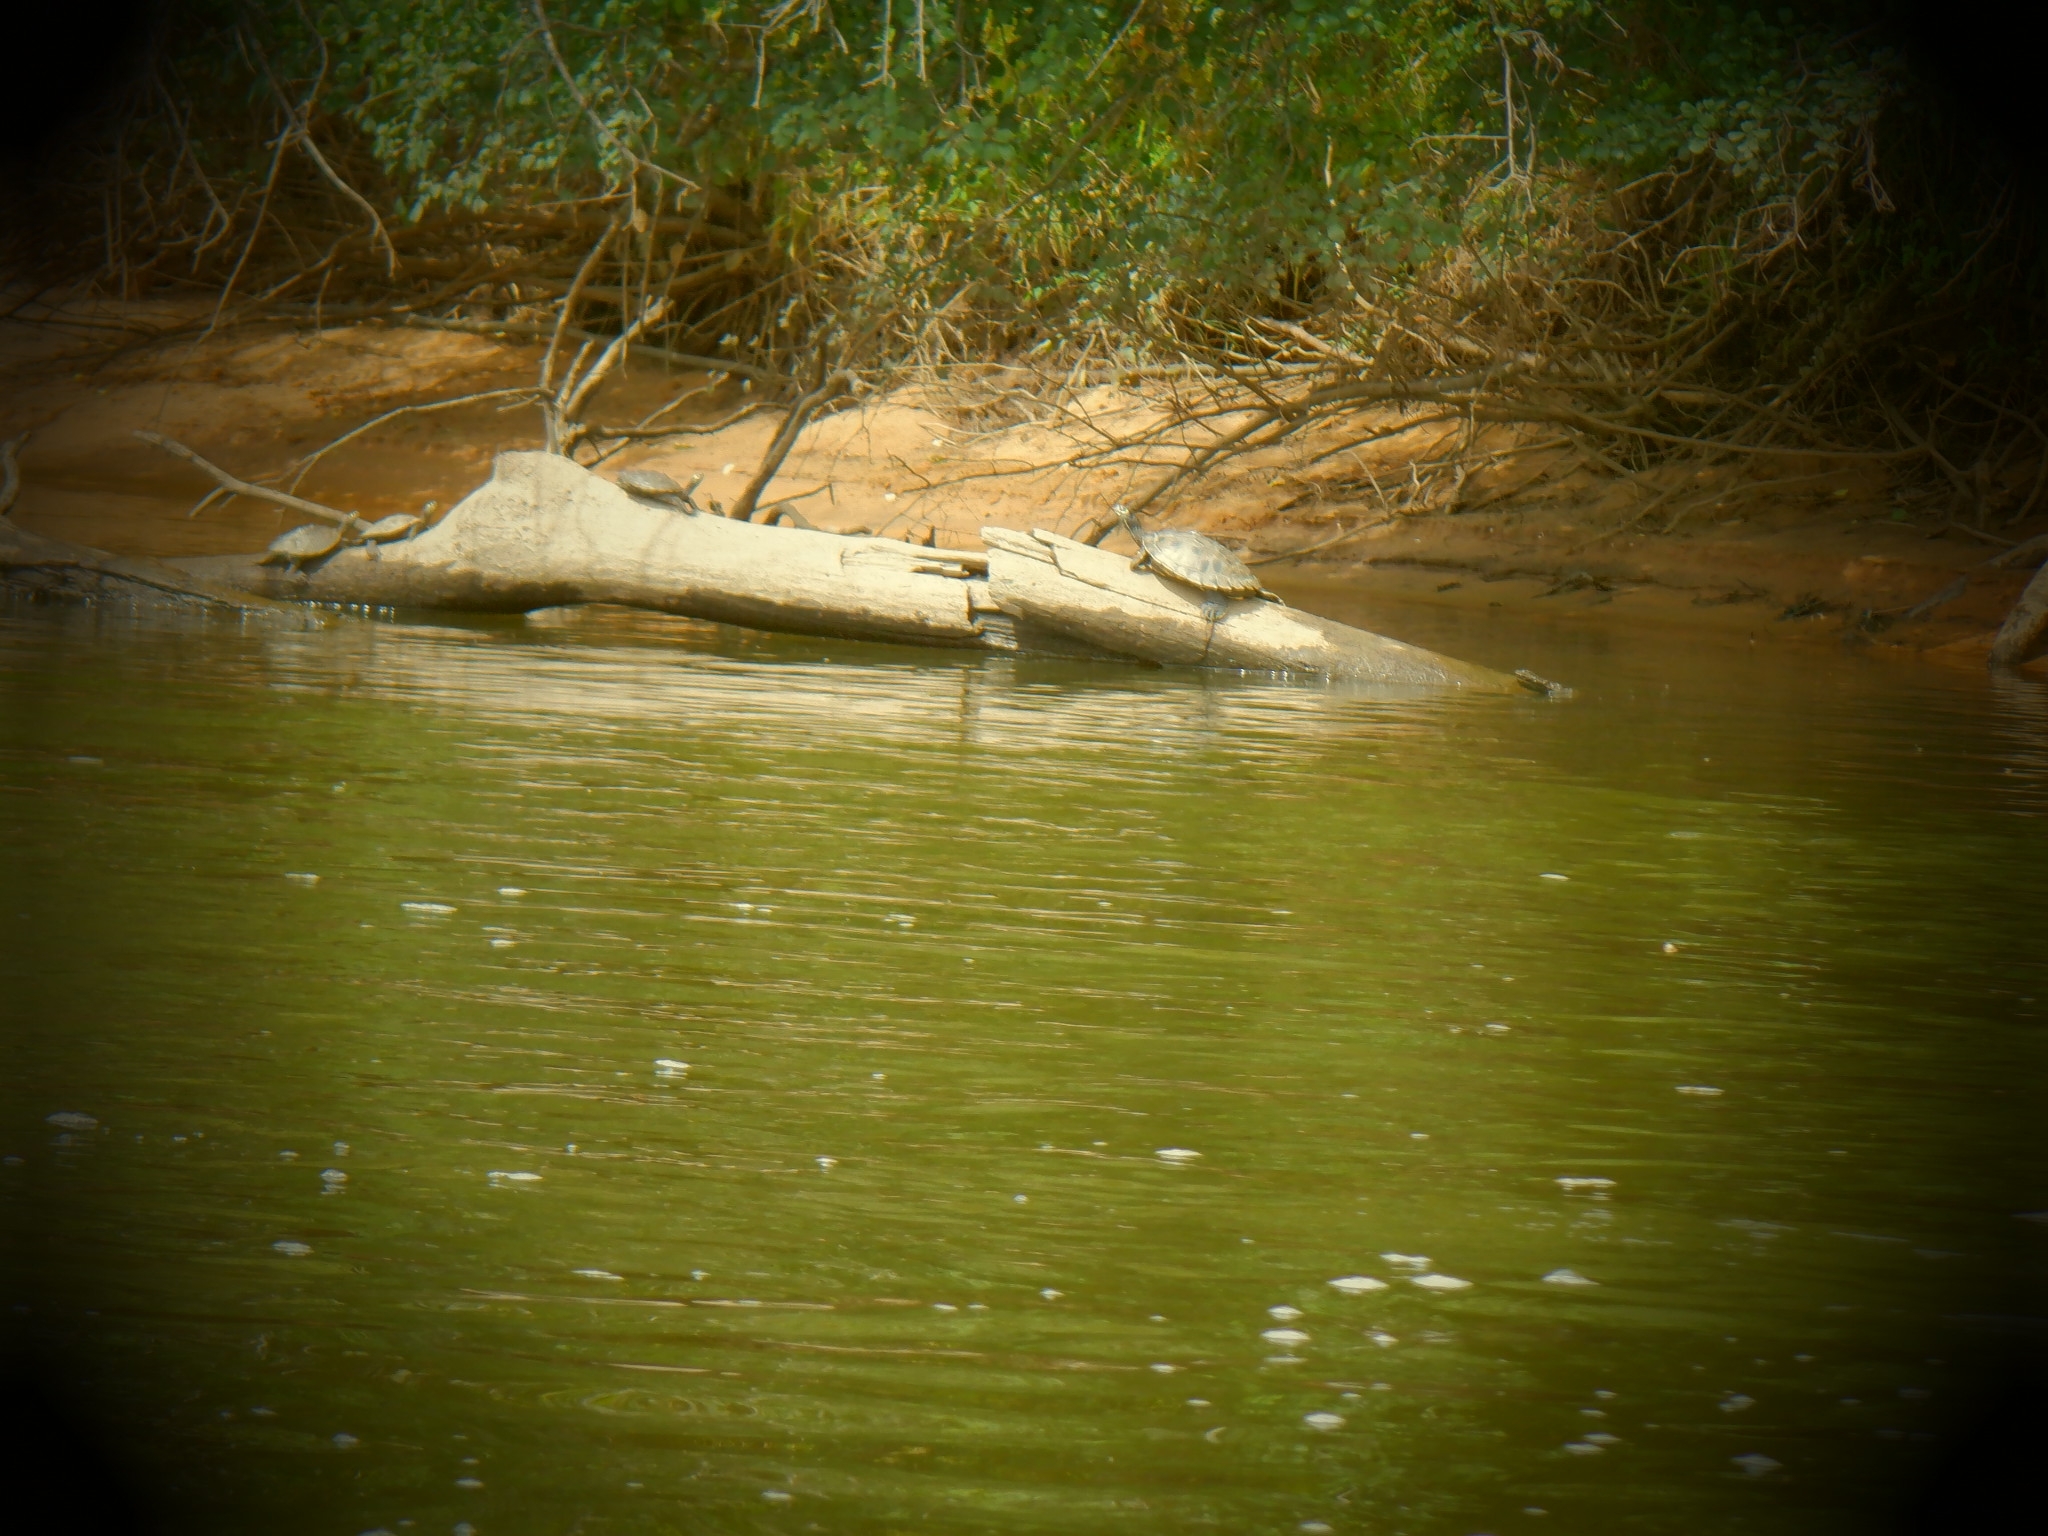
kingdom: Animalia
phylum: Chordata
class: Testudines
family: Emydidae
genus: Graptemys
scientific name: Graptemys ouachitensis
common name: Ouachita map turtle
